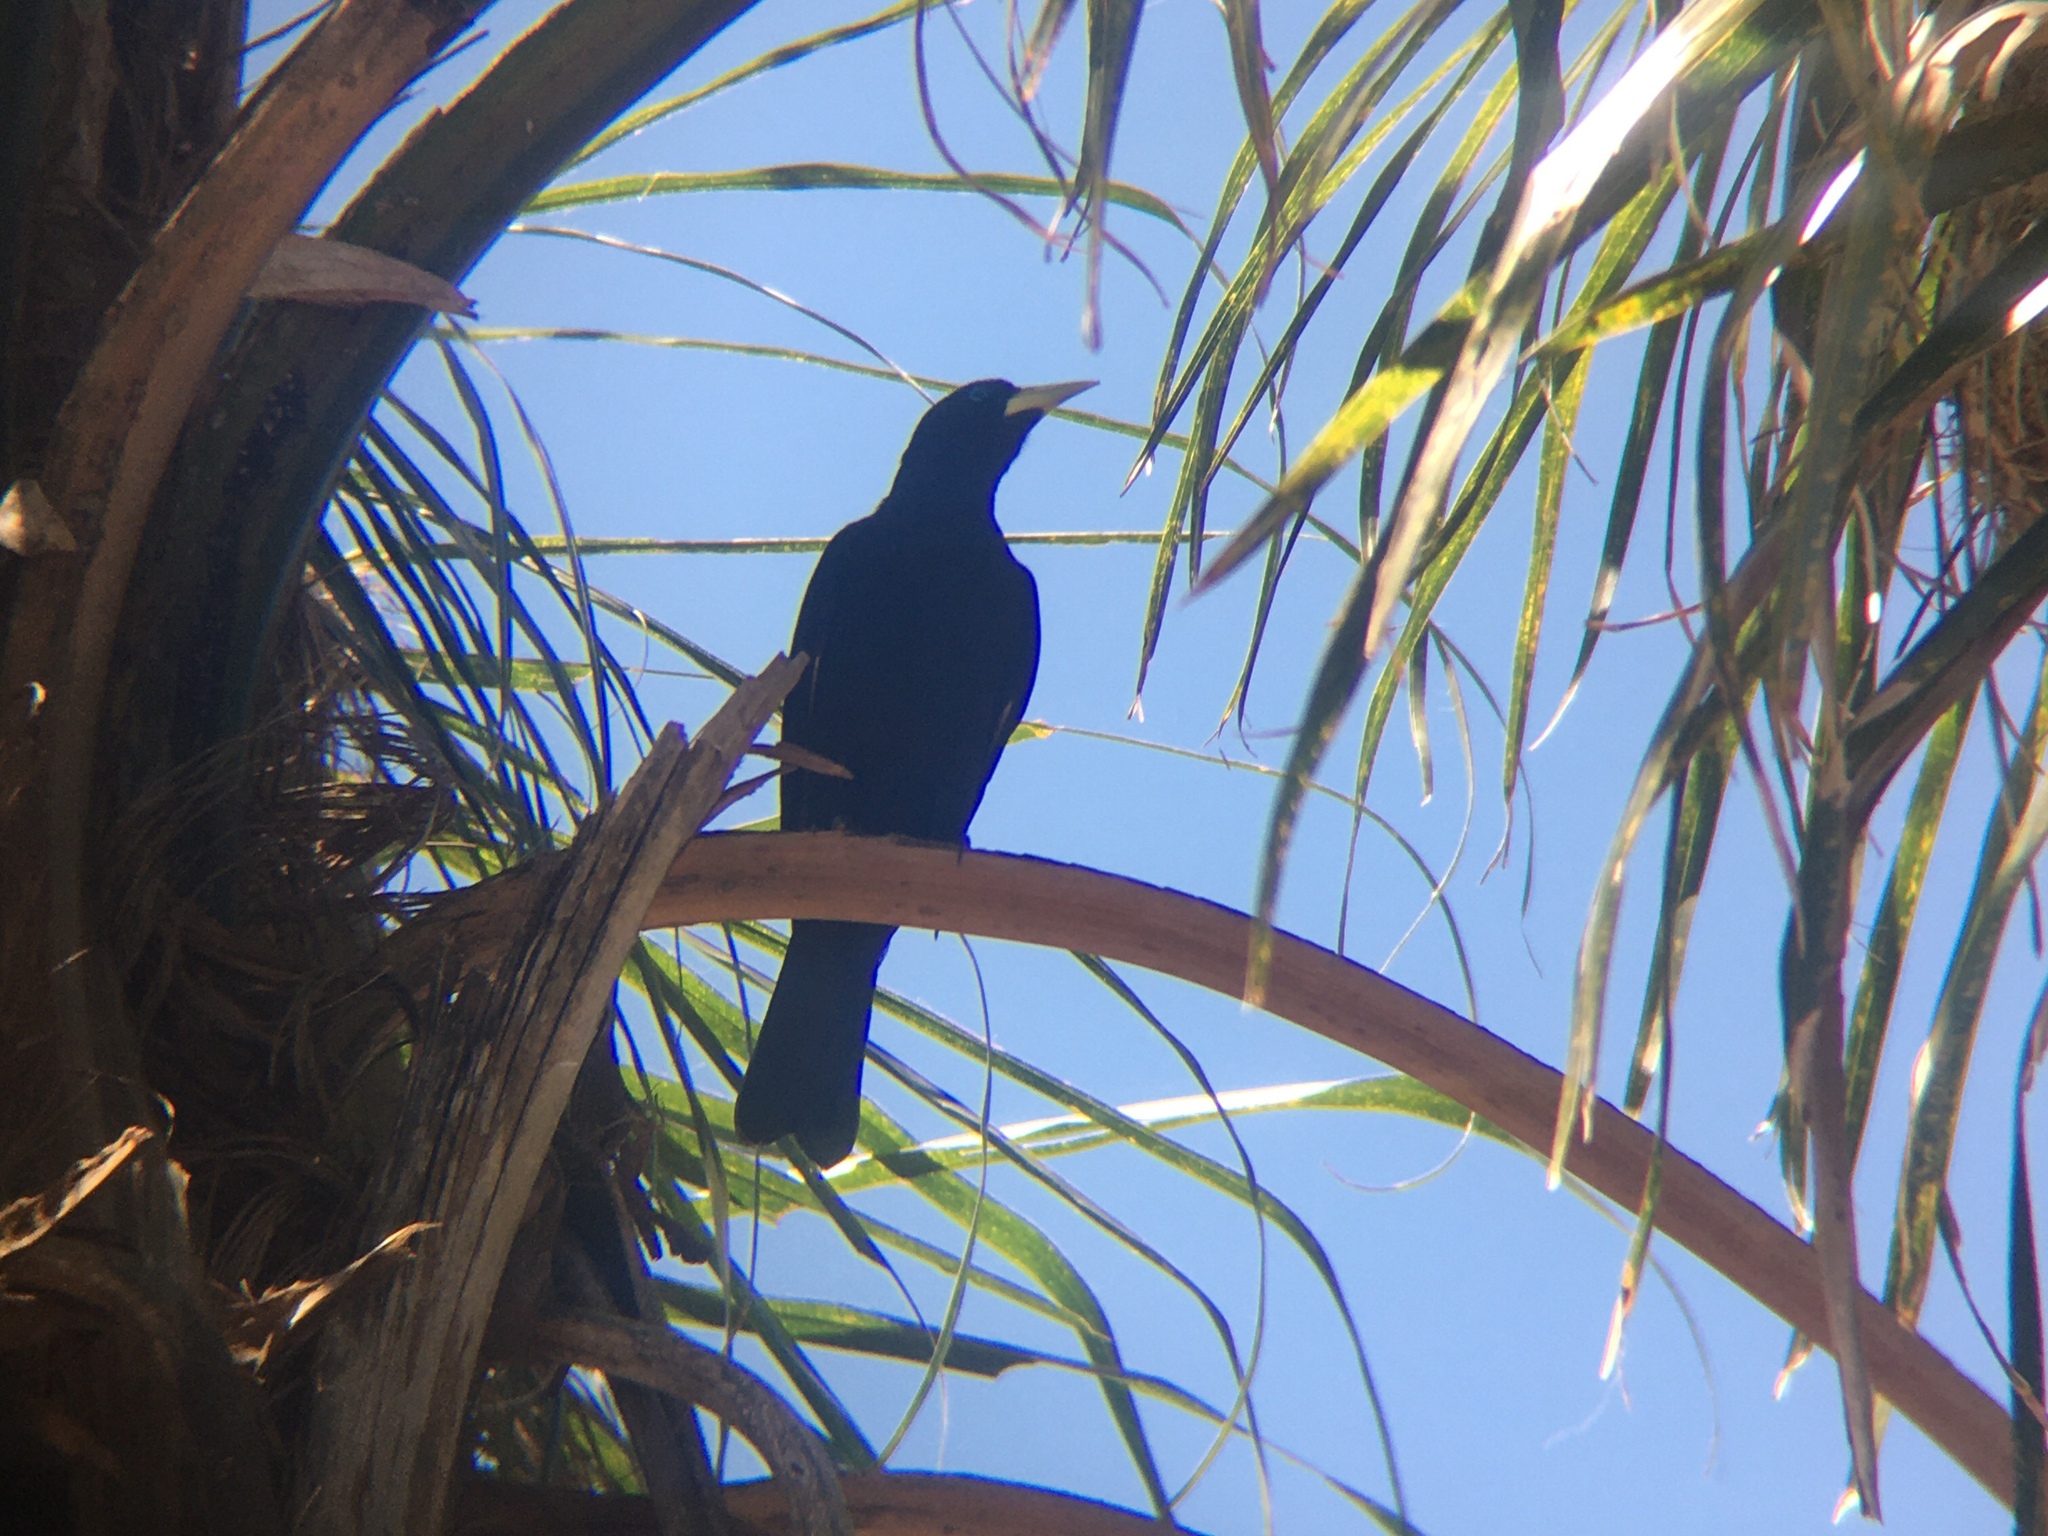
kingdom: Animalia
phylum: Chordata
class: Aves
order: Passeriformes
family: Icteridae
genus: Cacicus
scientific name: Cacicus haemorrhous
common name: Red-rumped cacique
